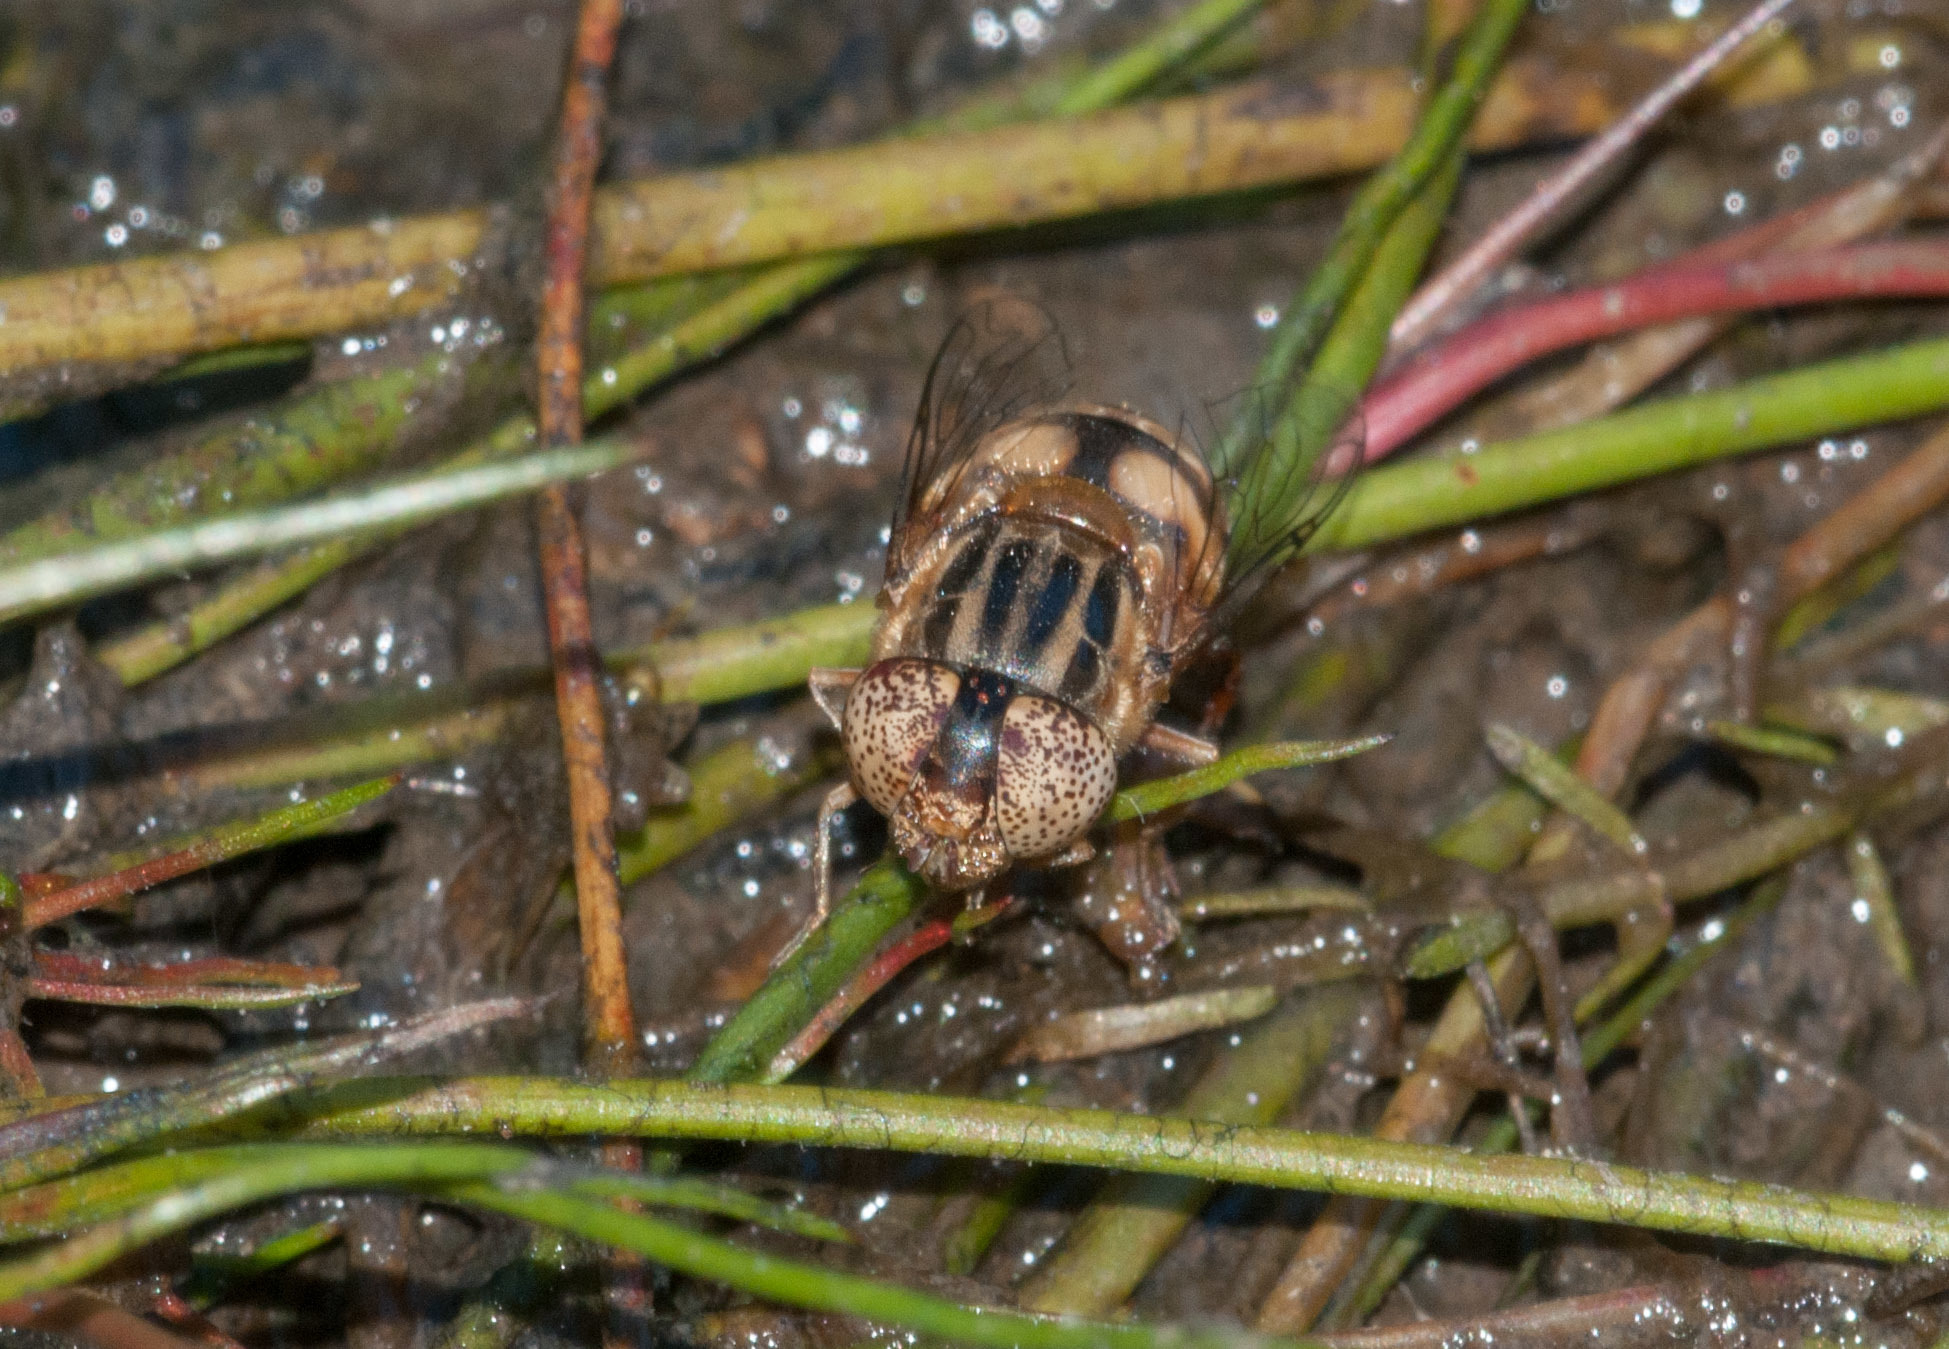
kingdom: Animalia
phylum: Arthropoda
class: Insecta
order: Diptera
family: Syrphidae
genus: Eristalinus
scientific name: Eristalinus punctulatus
